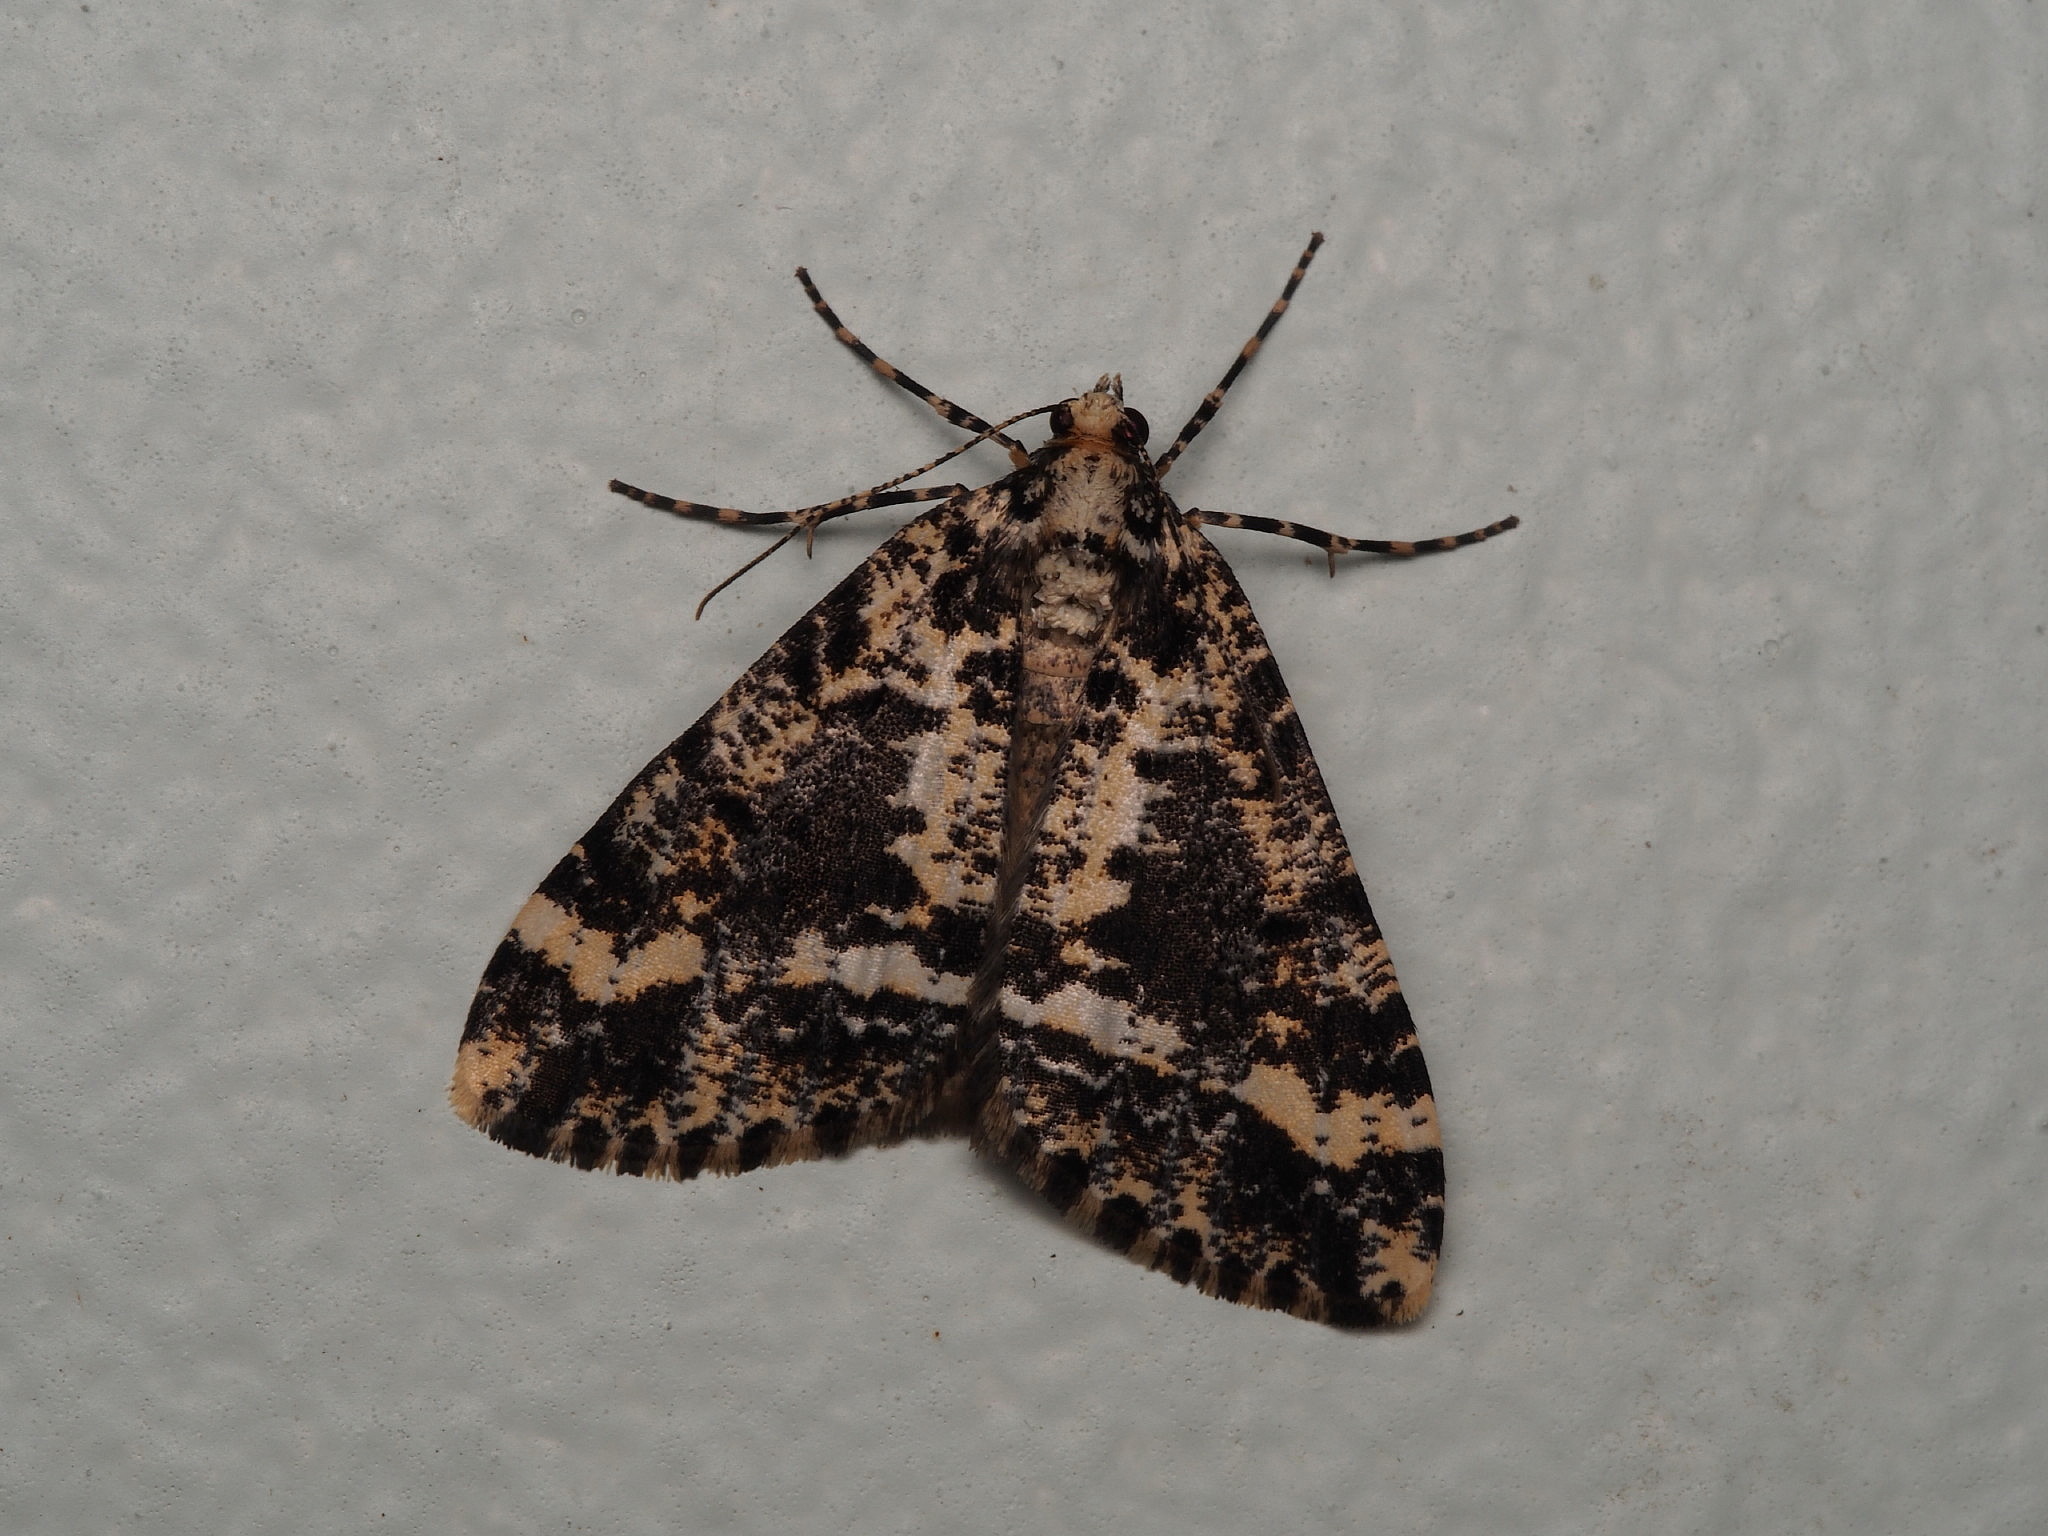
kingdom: Animalia
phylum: Arthropoda
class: Insecta
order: Lepidoptera
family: Geometridae
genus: Pseudocoremia
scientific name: Pseudocoremia leucelaea
